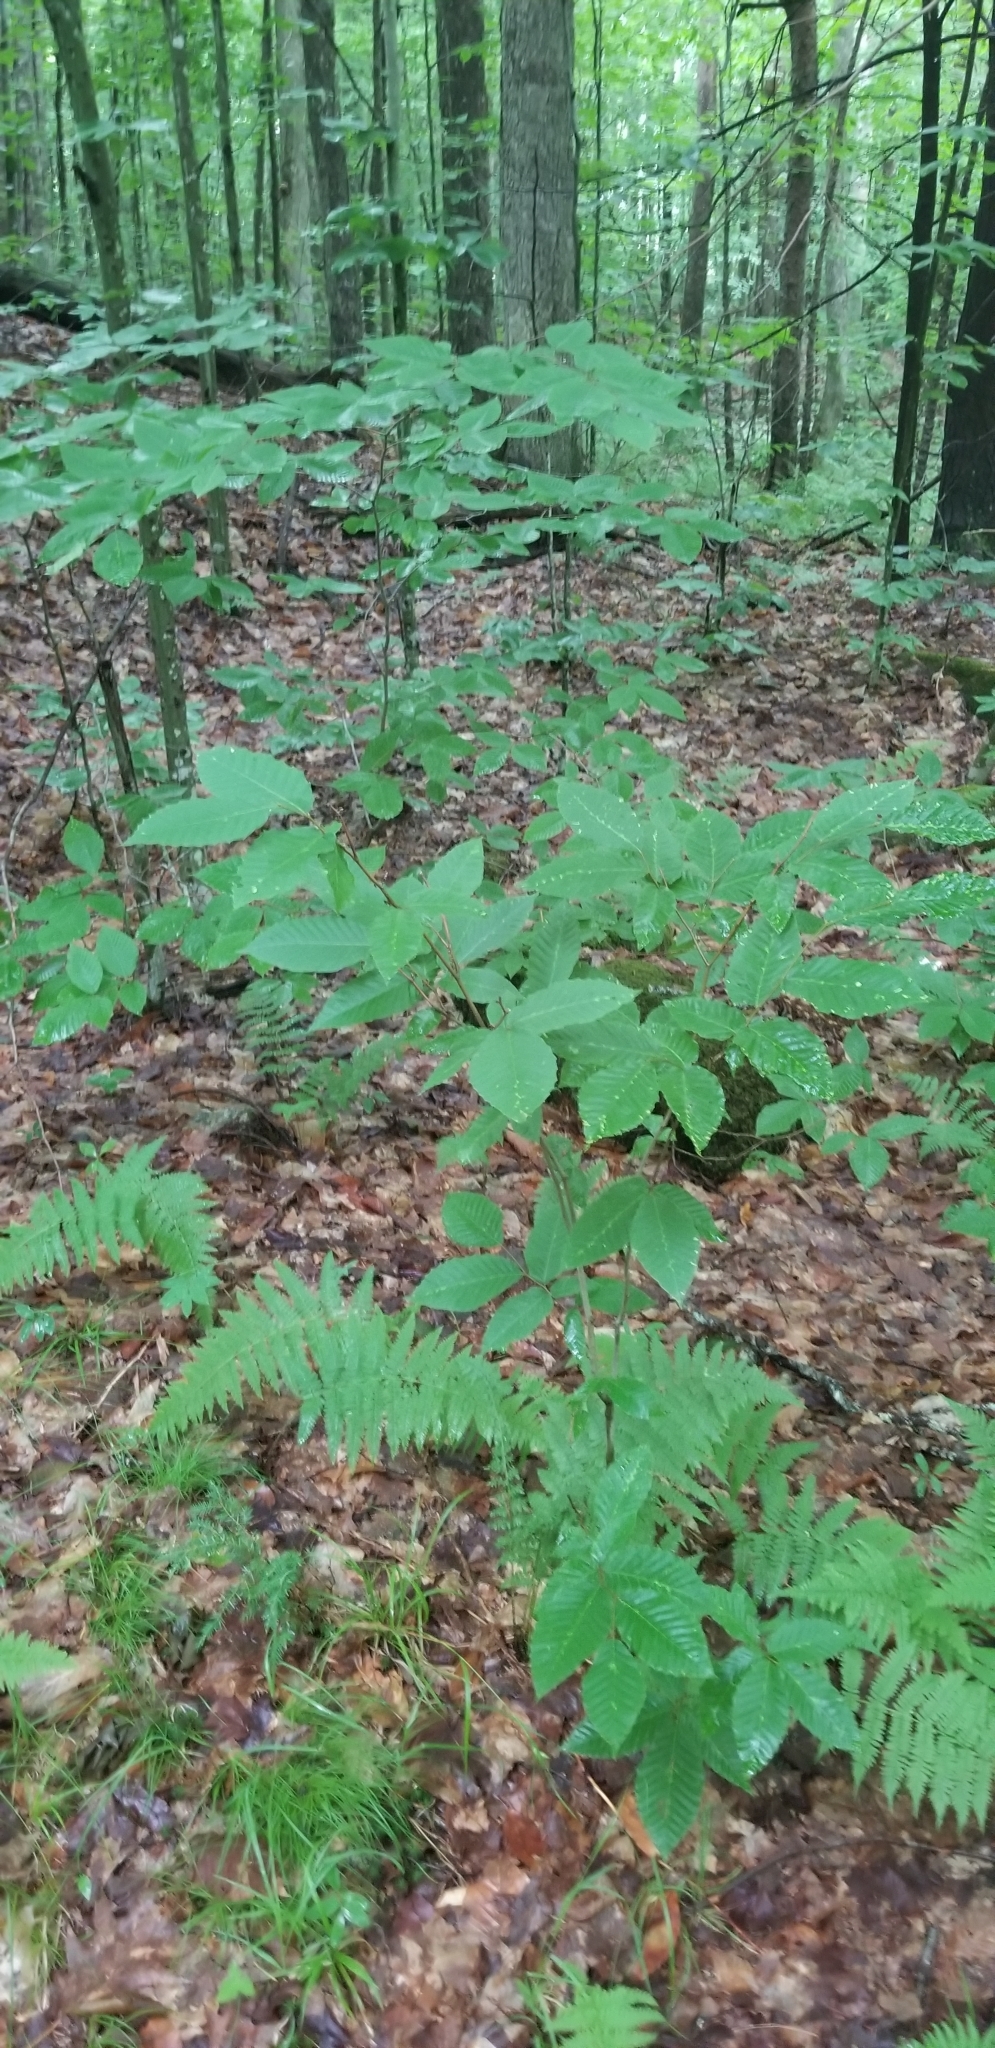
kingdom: Plantae
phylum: Tracheophyta
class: Magnoliopsida
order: Fagales
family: Fagaceae
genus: Fagus
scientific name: Fagus grandifolia
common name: American beech
